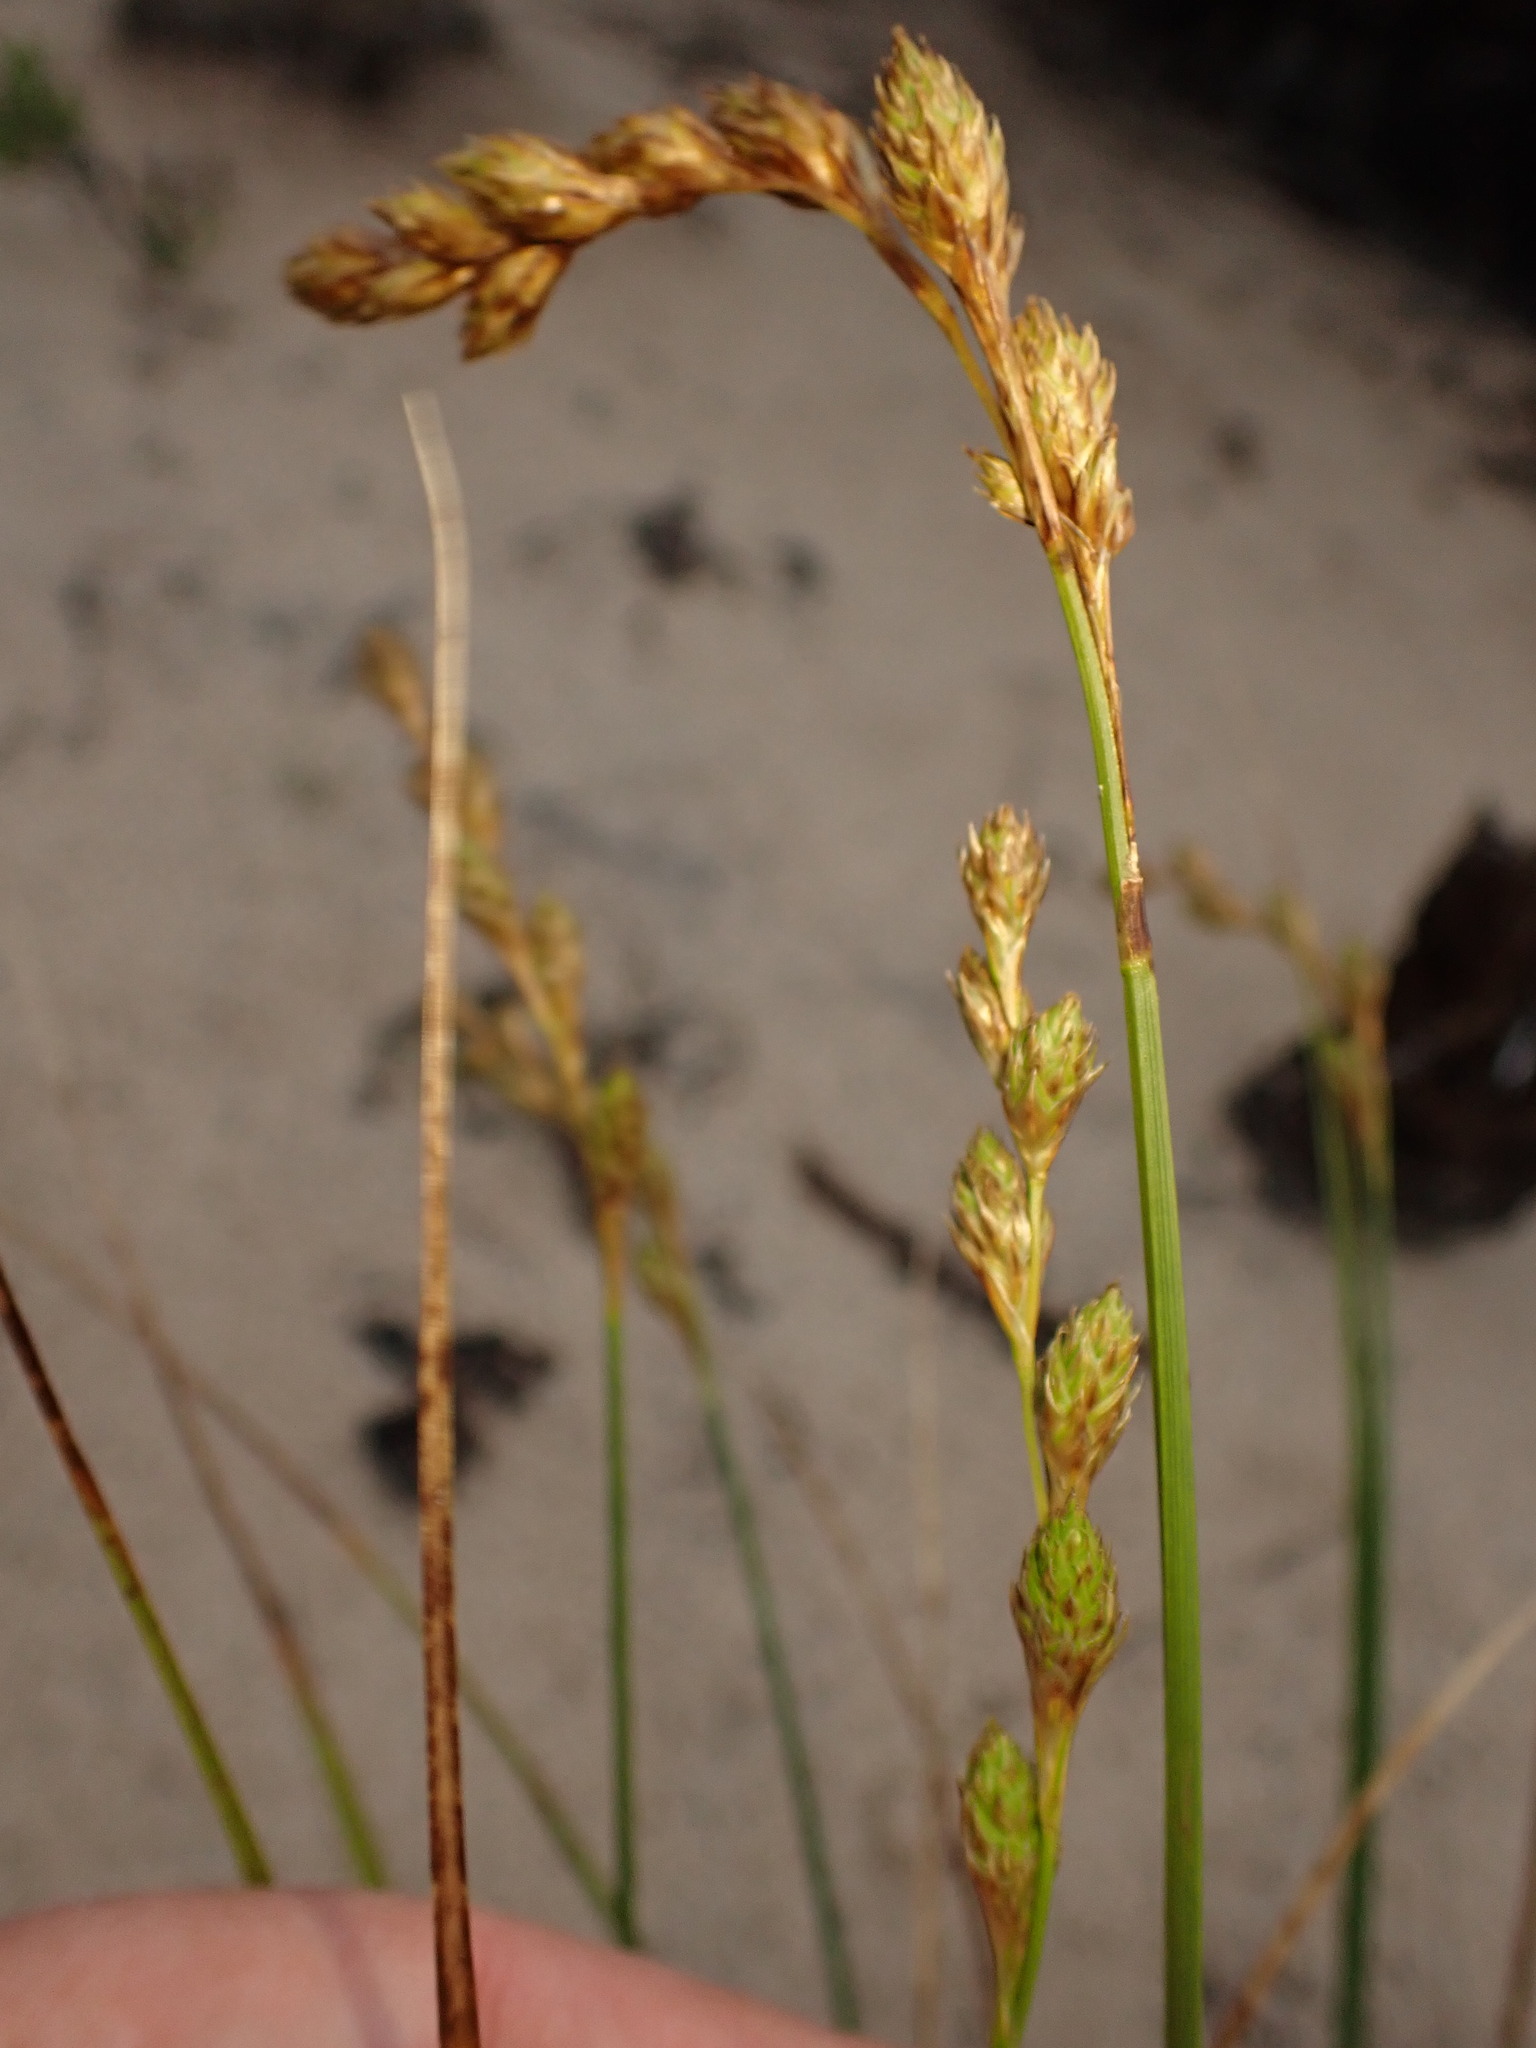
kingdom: Plantae
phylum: Tracheophyta
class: Liliopsida
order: Poales
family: Cyperaceae
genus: Carex
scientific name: Carex silicea
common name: Beach sedge
